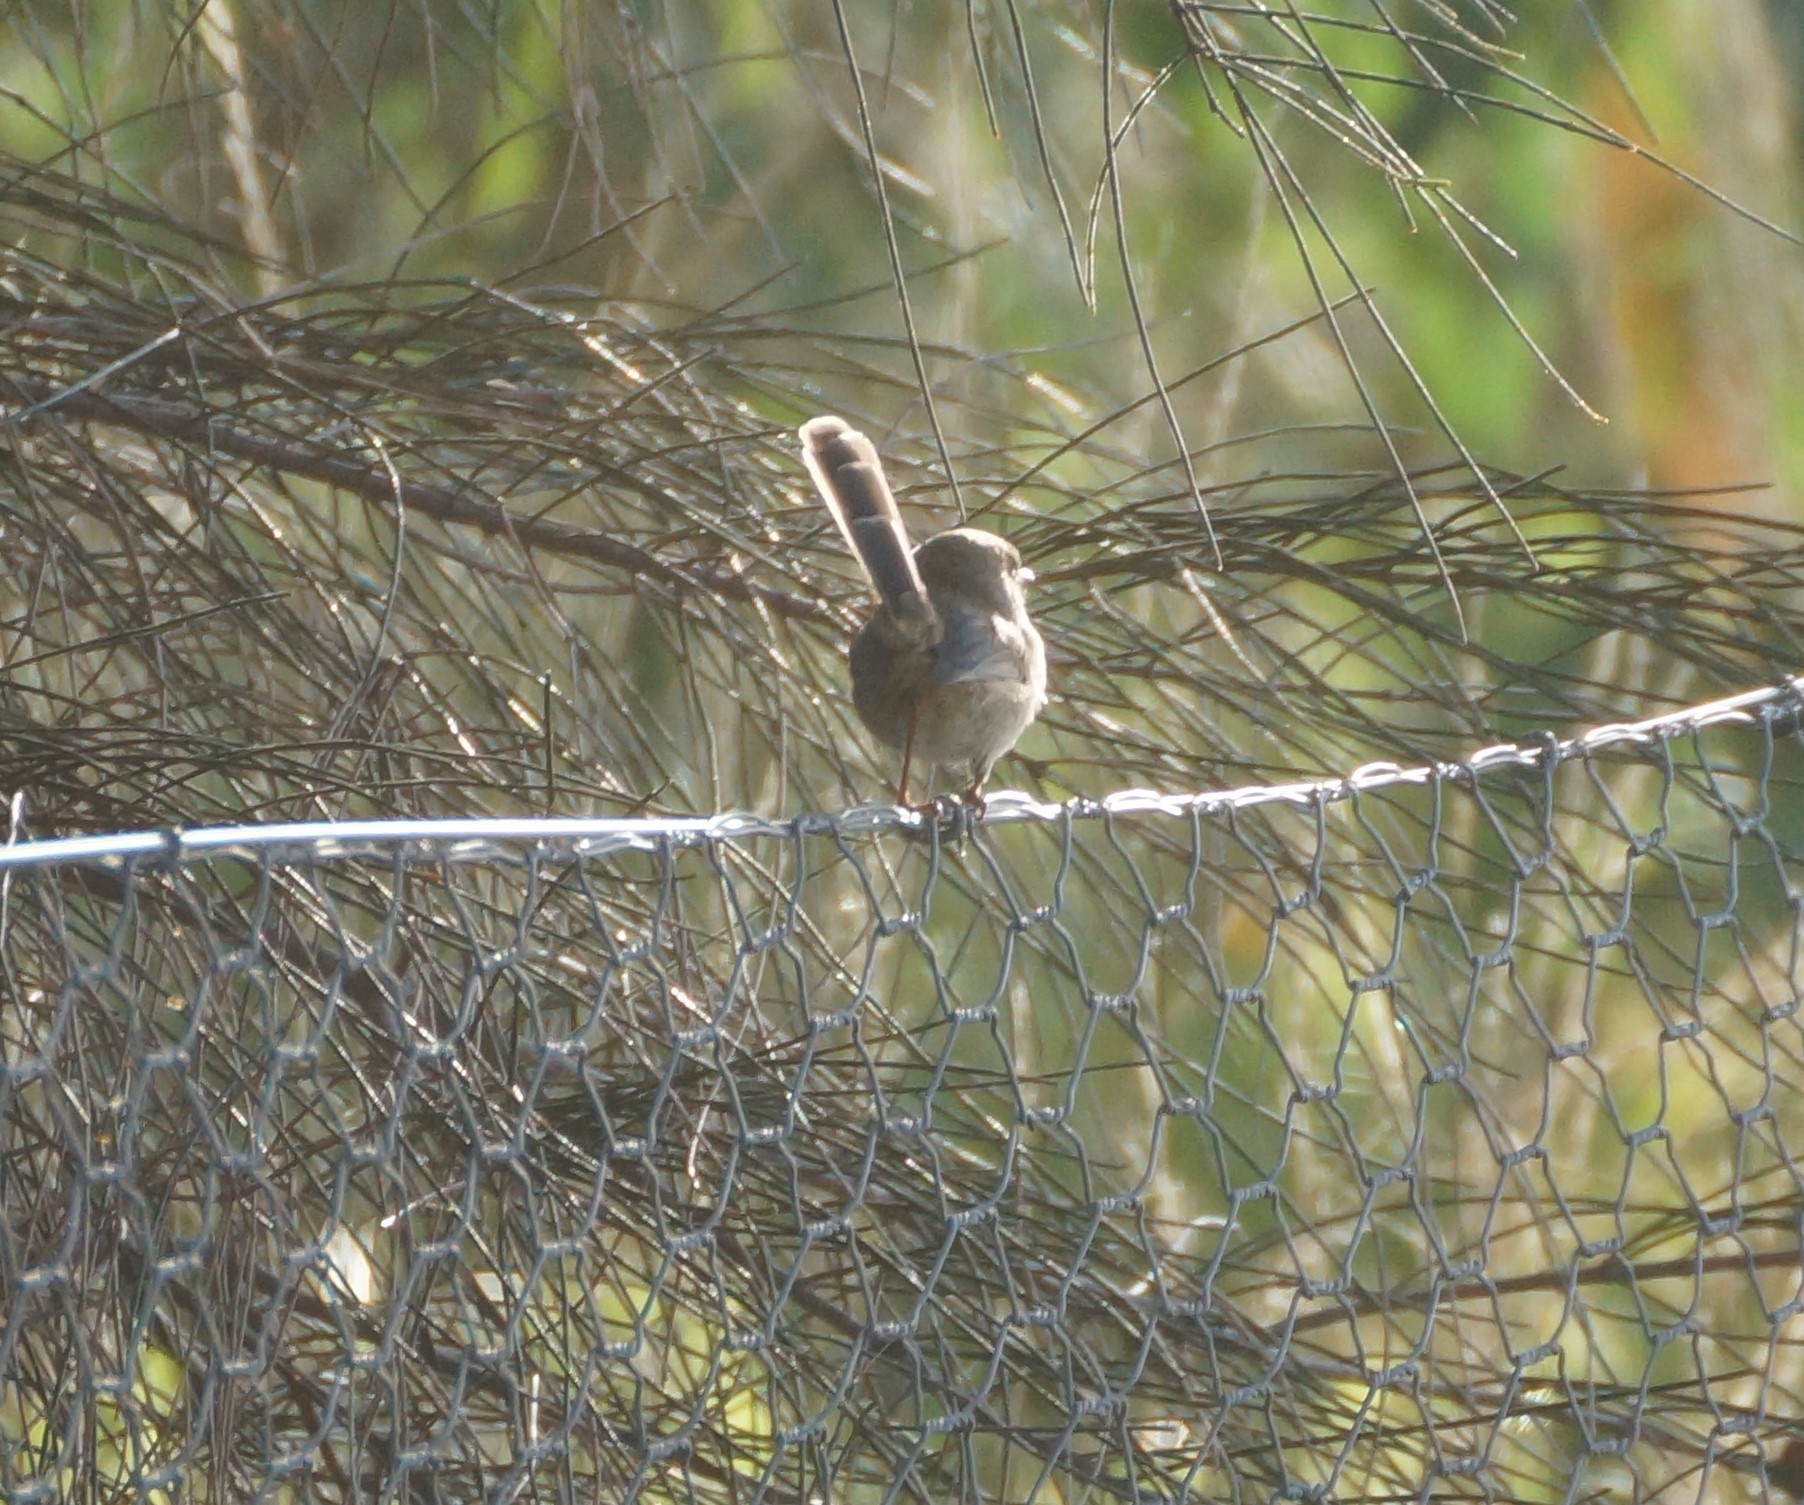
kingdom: Animalia
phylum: Chordata
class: Aves
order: Passeriformes
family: Maluridae
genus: Malurus
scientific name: Malurus cyaneus
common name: Superb fairywren
